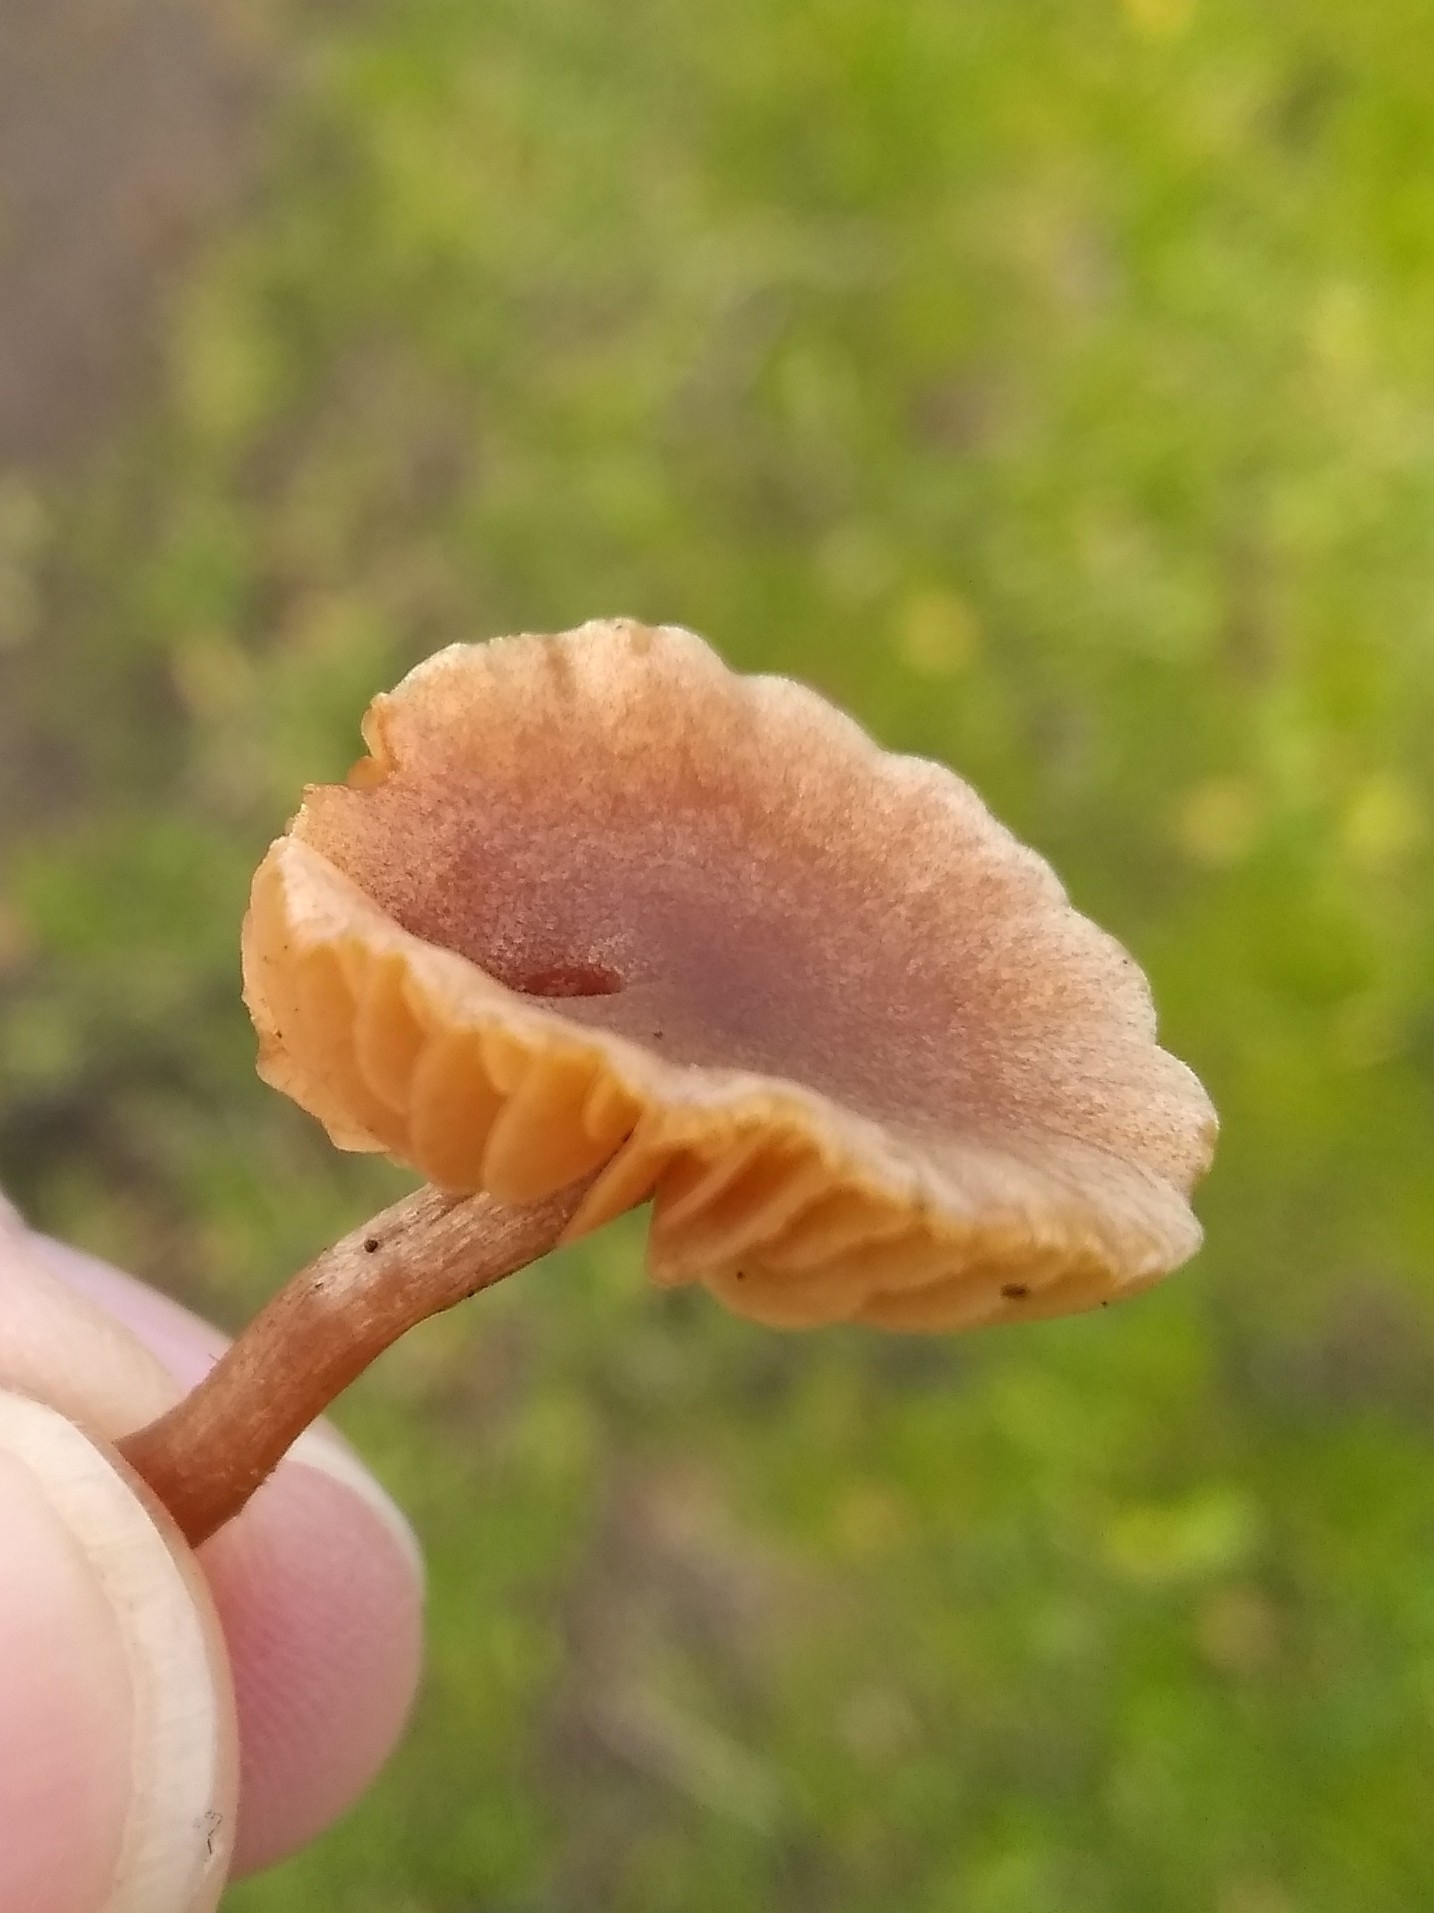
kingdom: Fungi
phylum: Basidiomycota
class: Agaricomycetes
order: Agaricales
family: Tubariaceae
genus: Tubaria
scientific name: Tubaria furfuracea
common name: Scurfy twiglet
